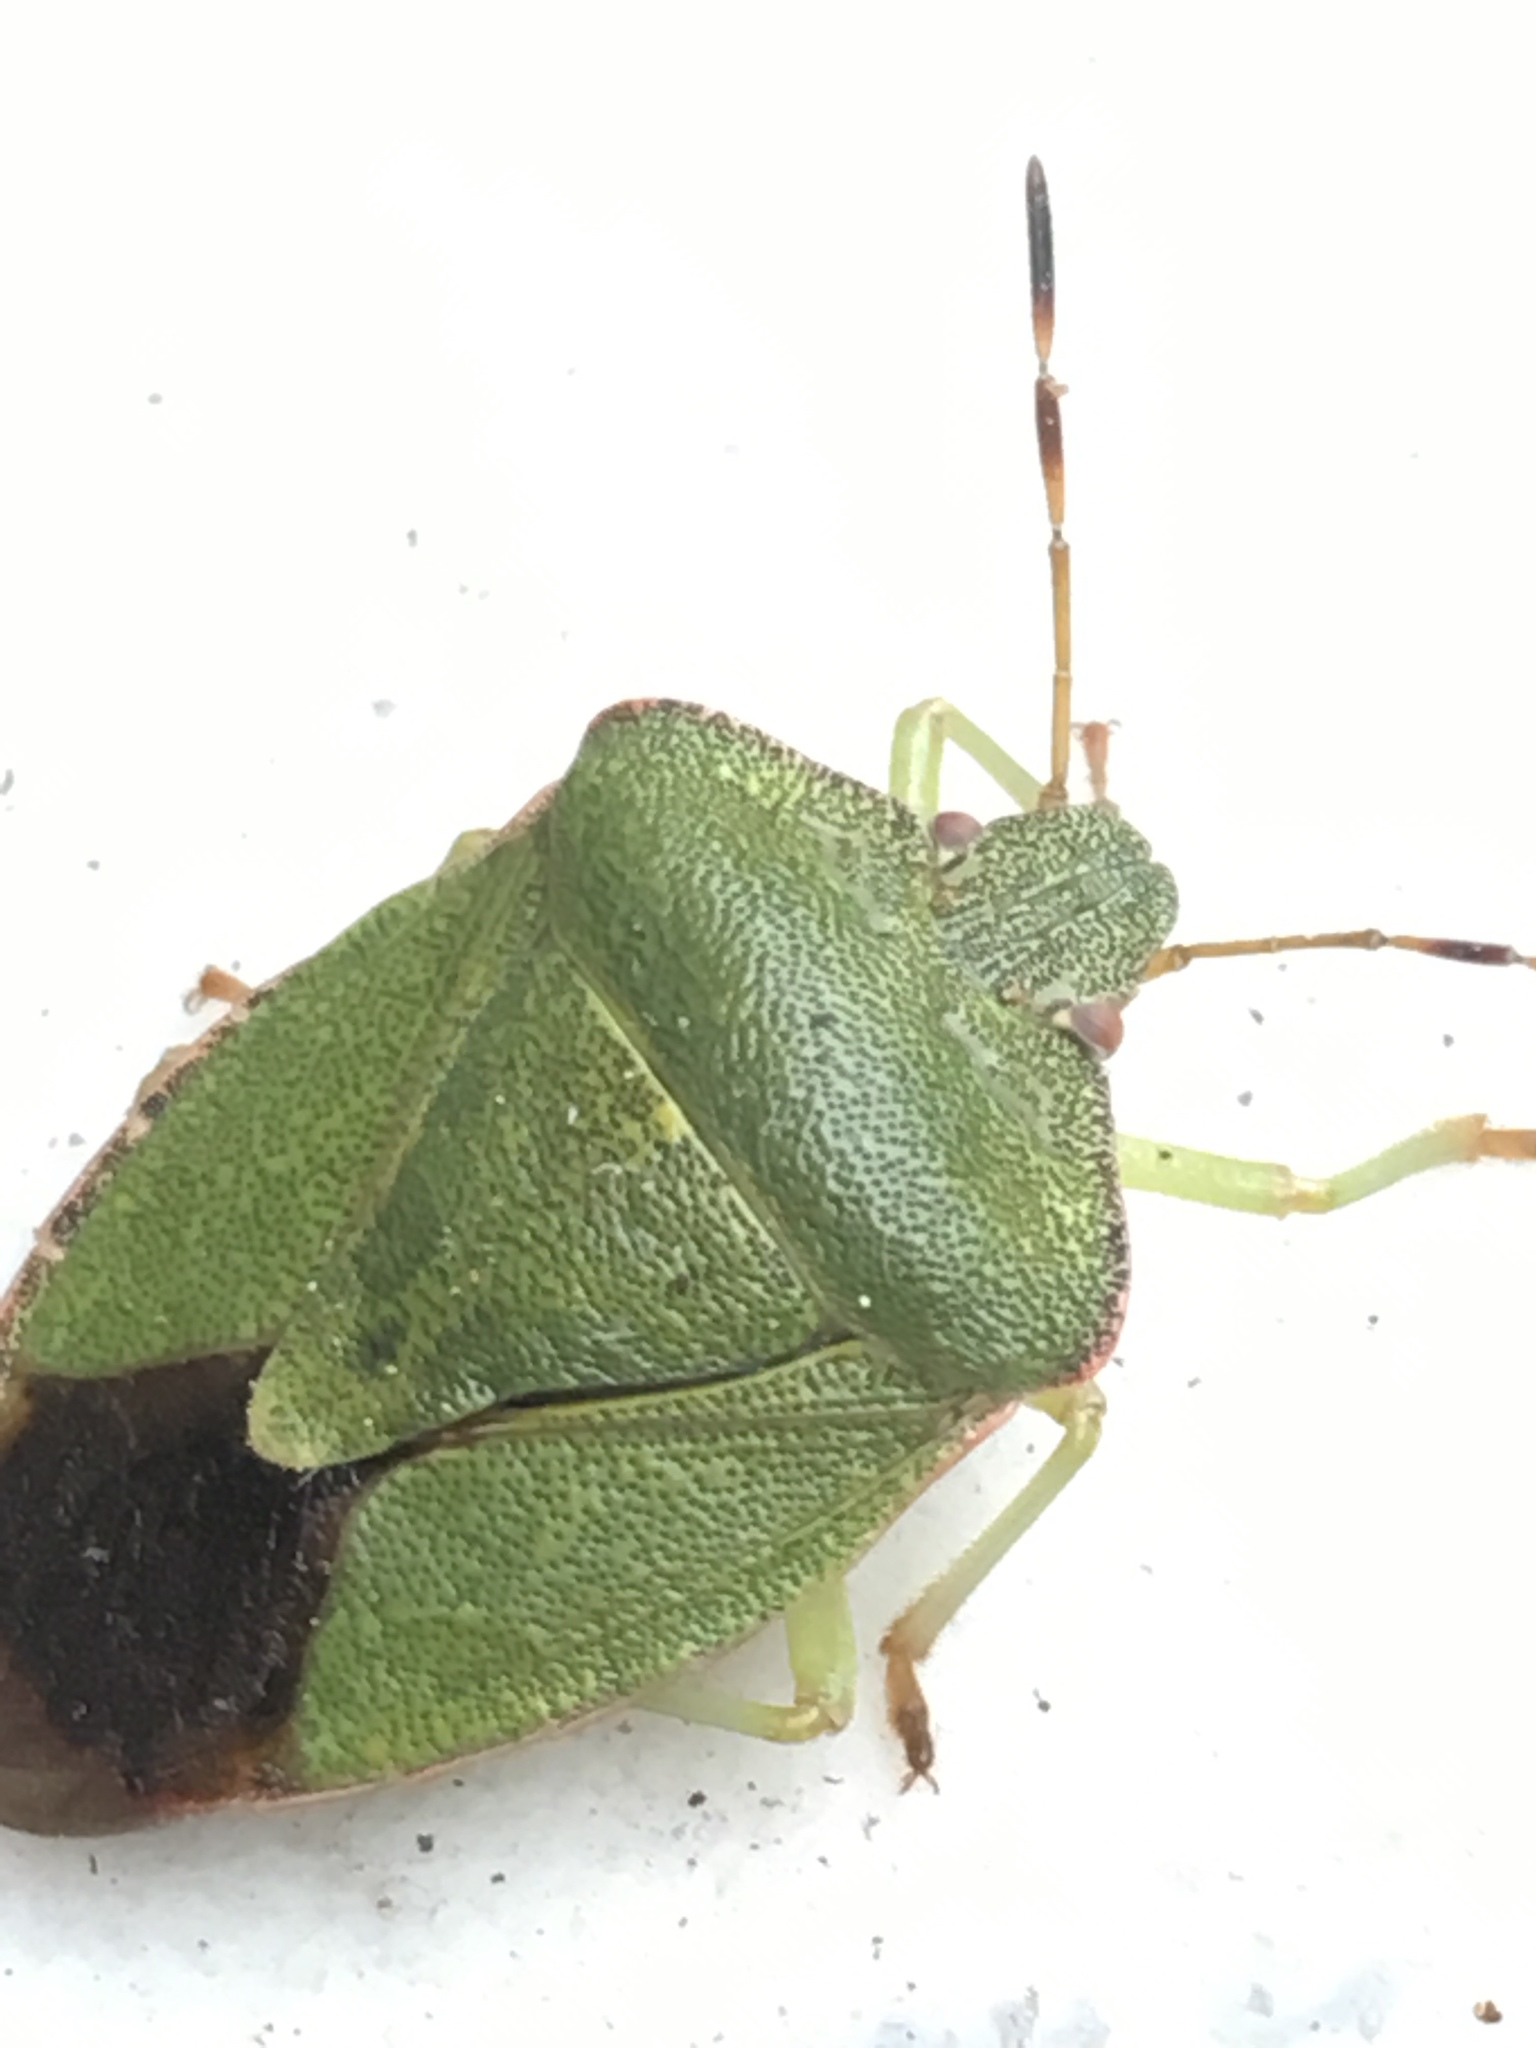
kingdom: Animalia
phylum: Arthropoda
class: Insecta
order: Hemiptera
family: Pentatomidae
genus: Palomena
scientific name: Palomena prasina
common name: Green shieldbug
